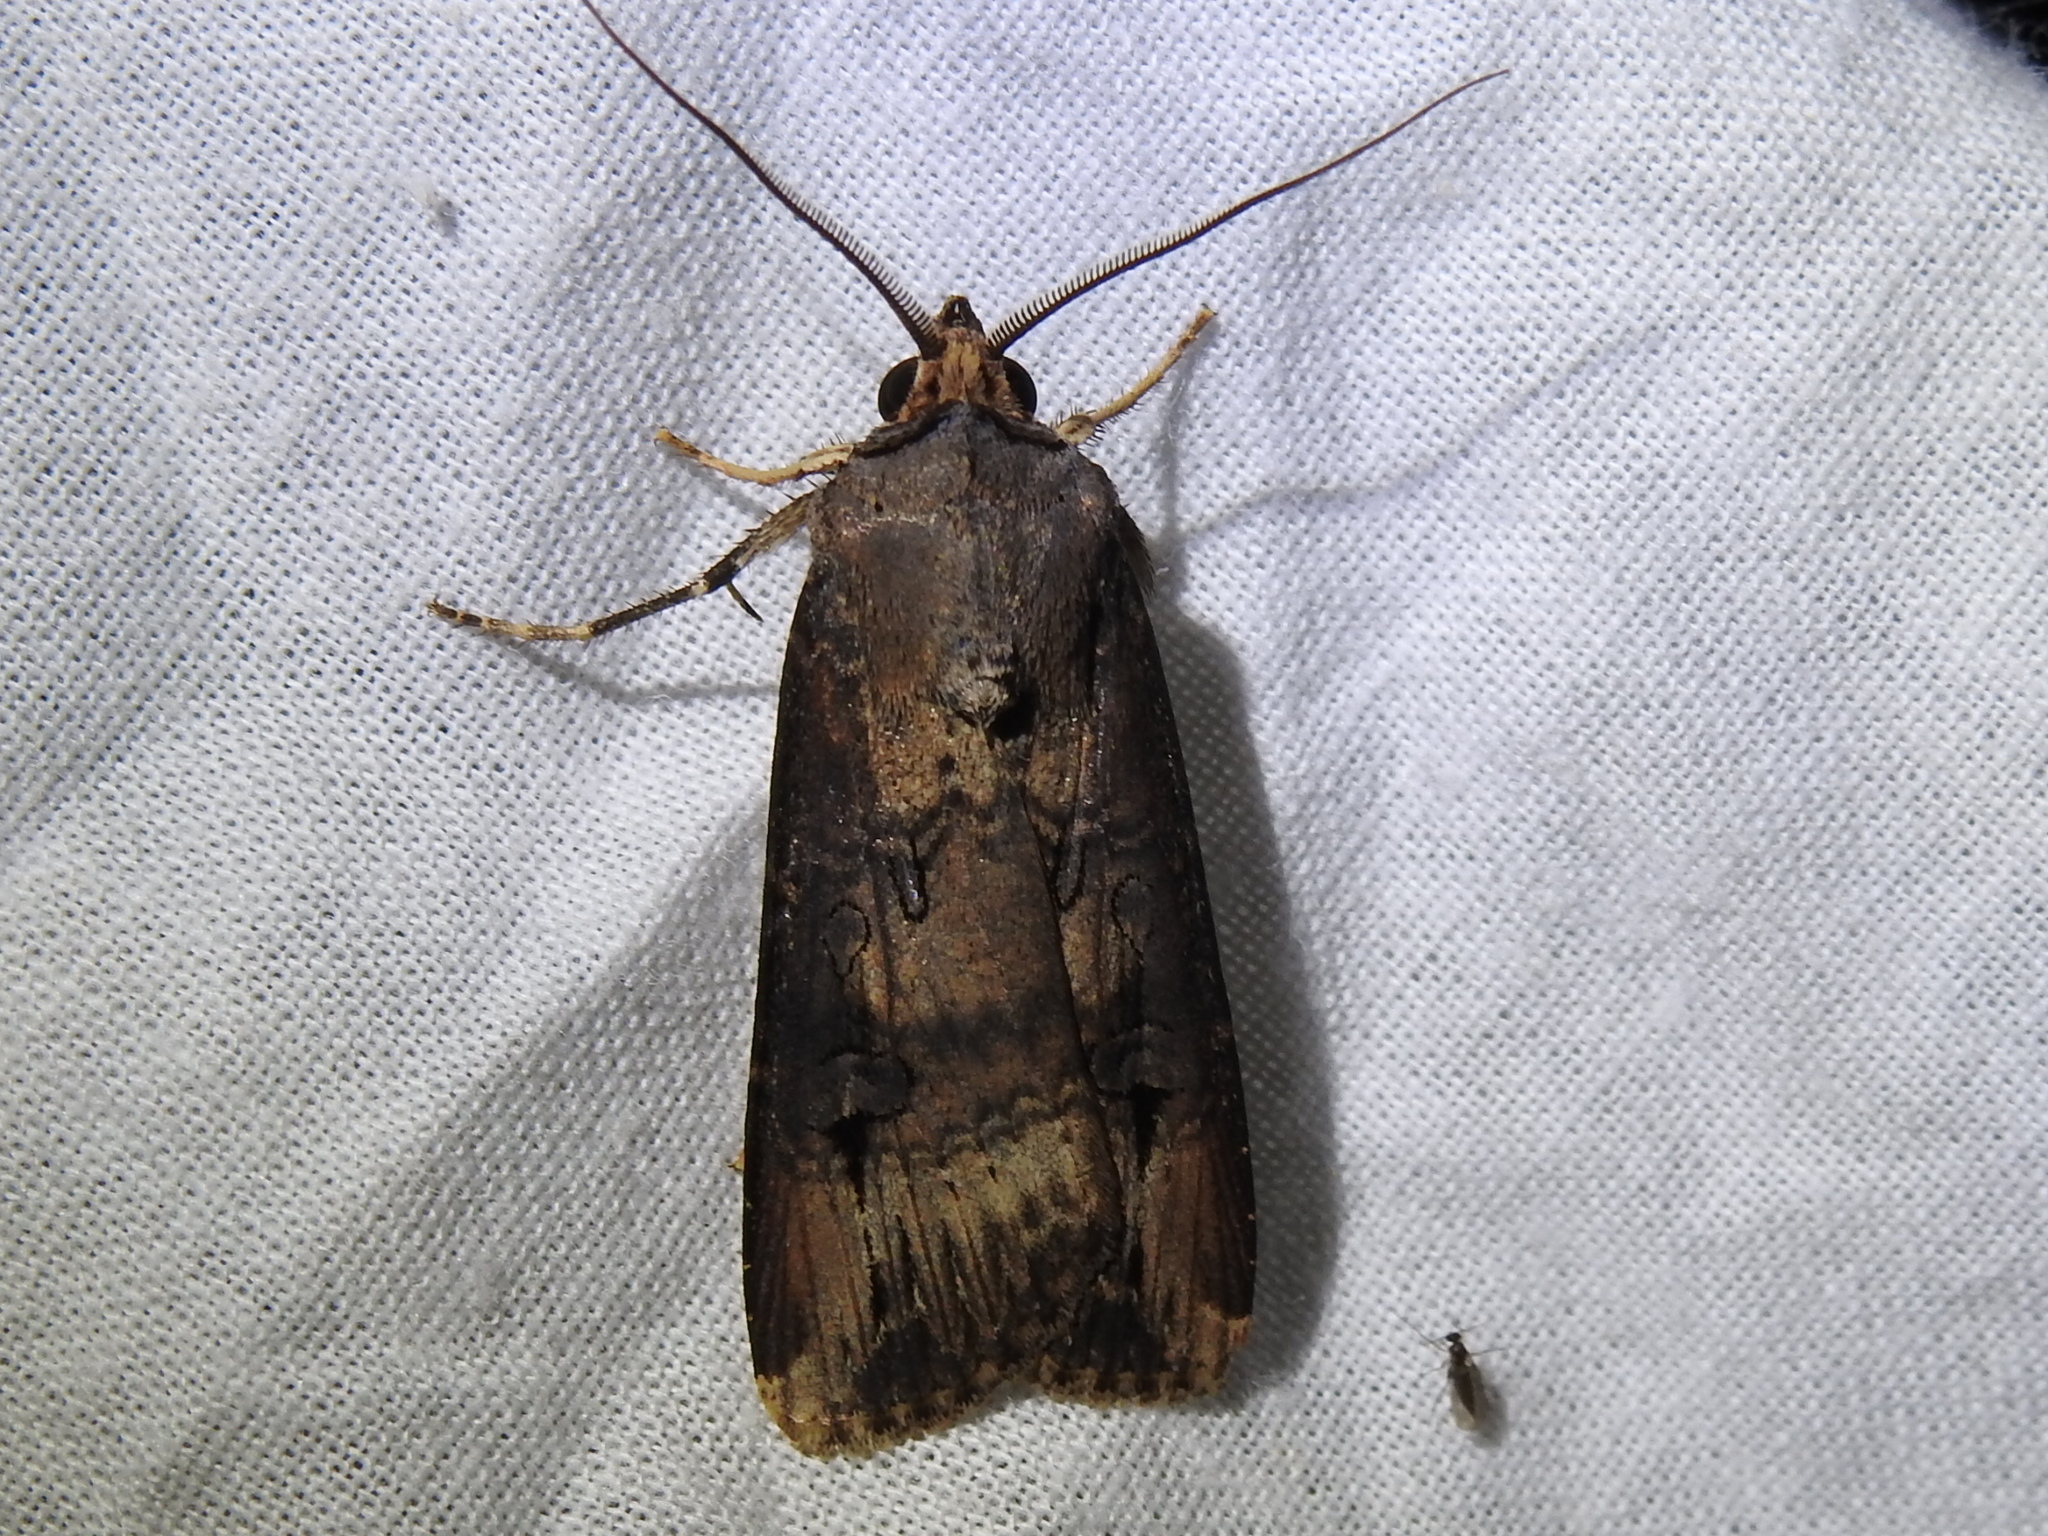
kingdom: Animalia
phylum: Arthropoda
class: Insecta
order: Lepidoptera
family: Noctuidae
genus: Agrotis
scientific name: Agrotis ipsilon
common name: Dark sword-grass
